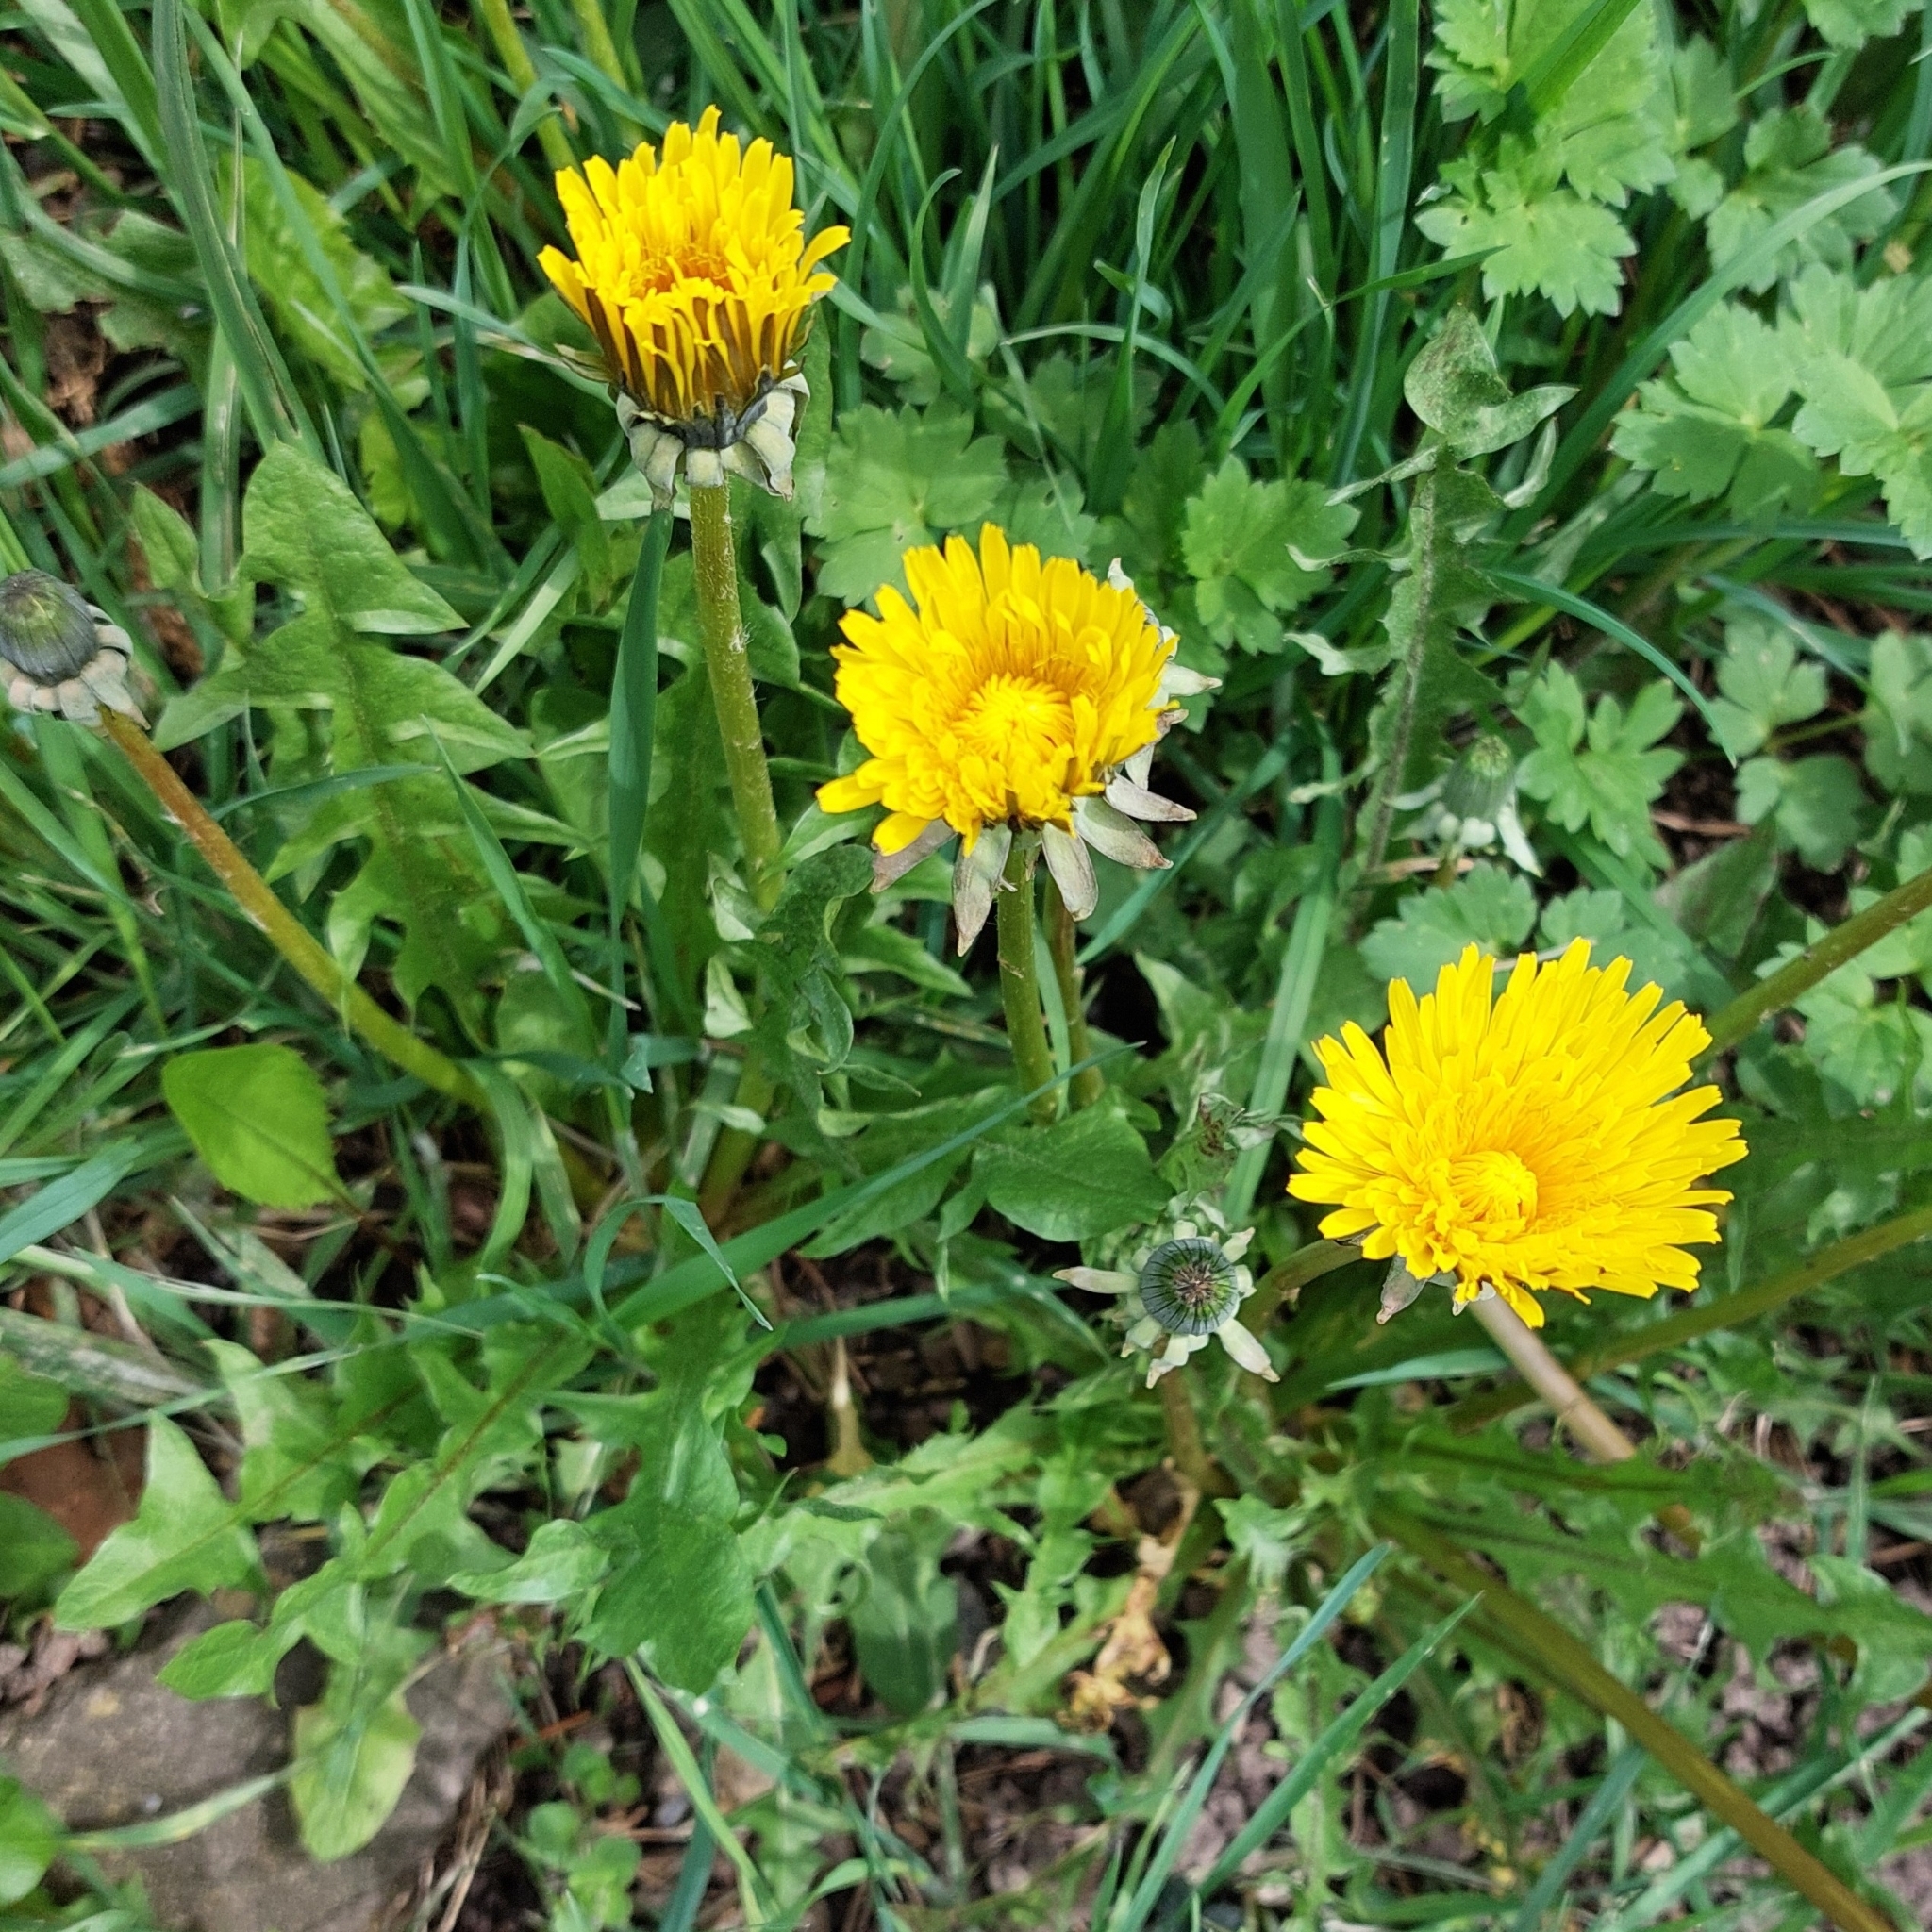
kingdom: Plantae
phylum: Tracheophyta
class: Magnoliopsida
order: Asterales
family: Asteraceae
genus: Taraxacum
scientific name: Taraxacum officinale
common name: Common dandelion
